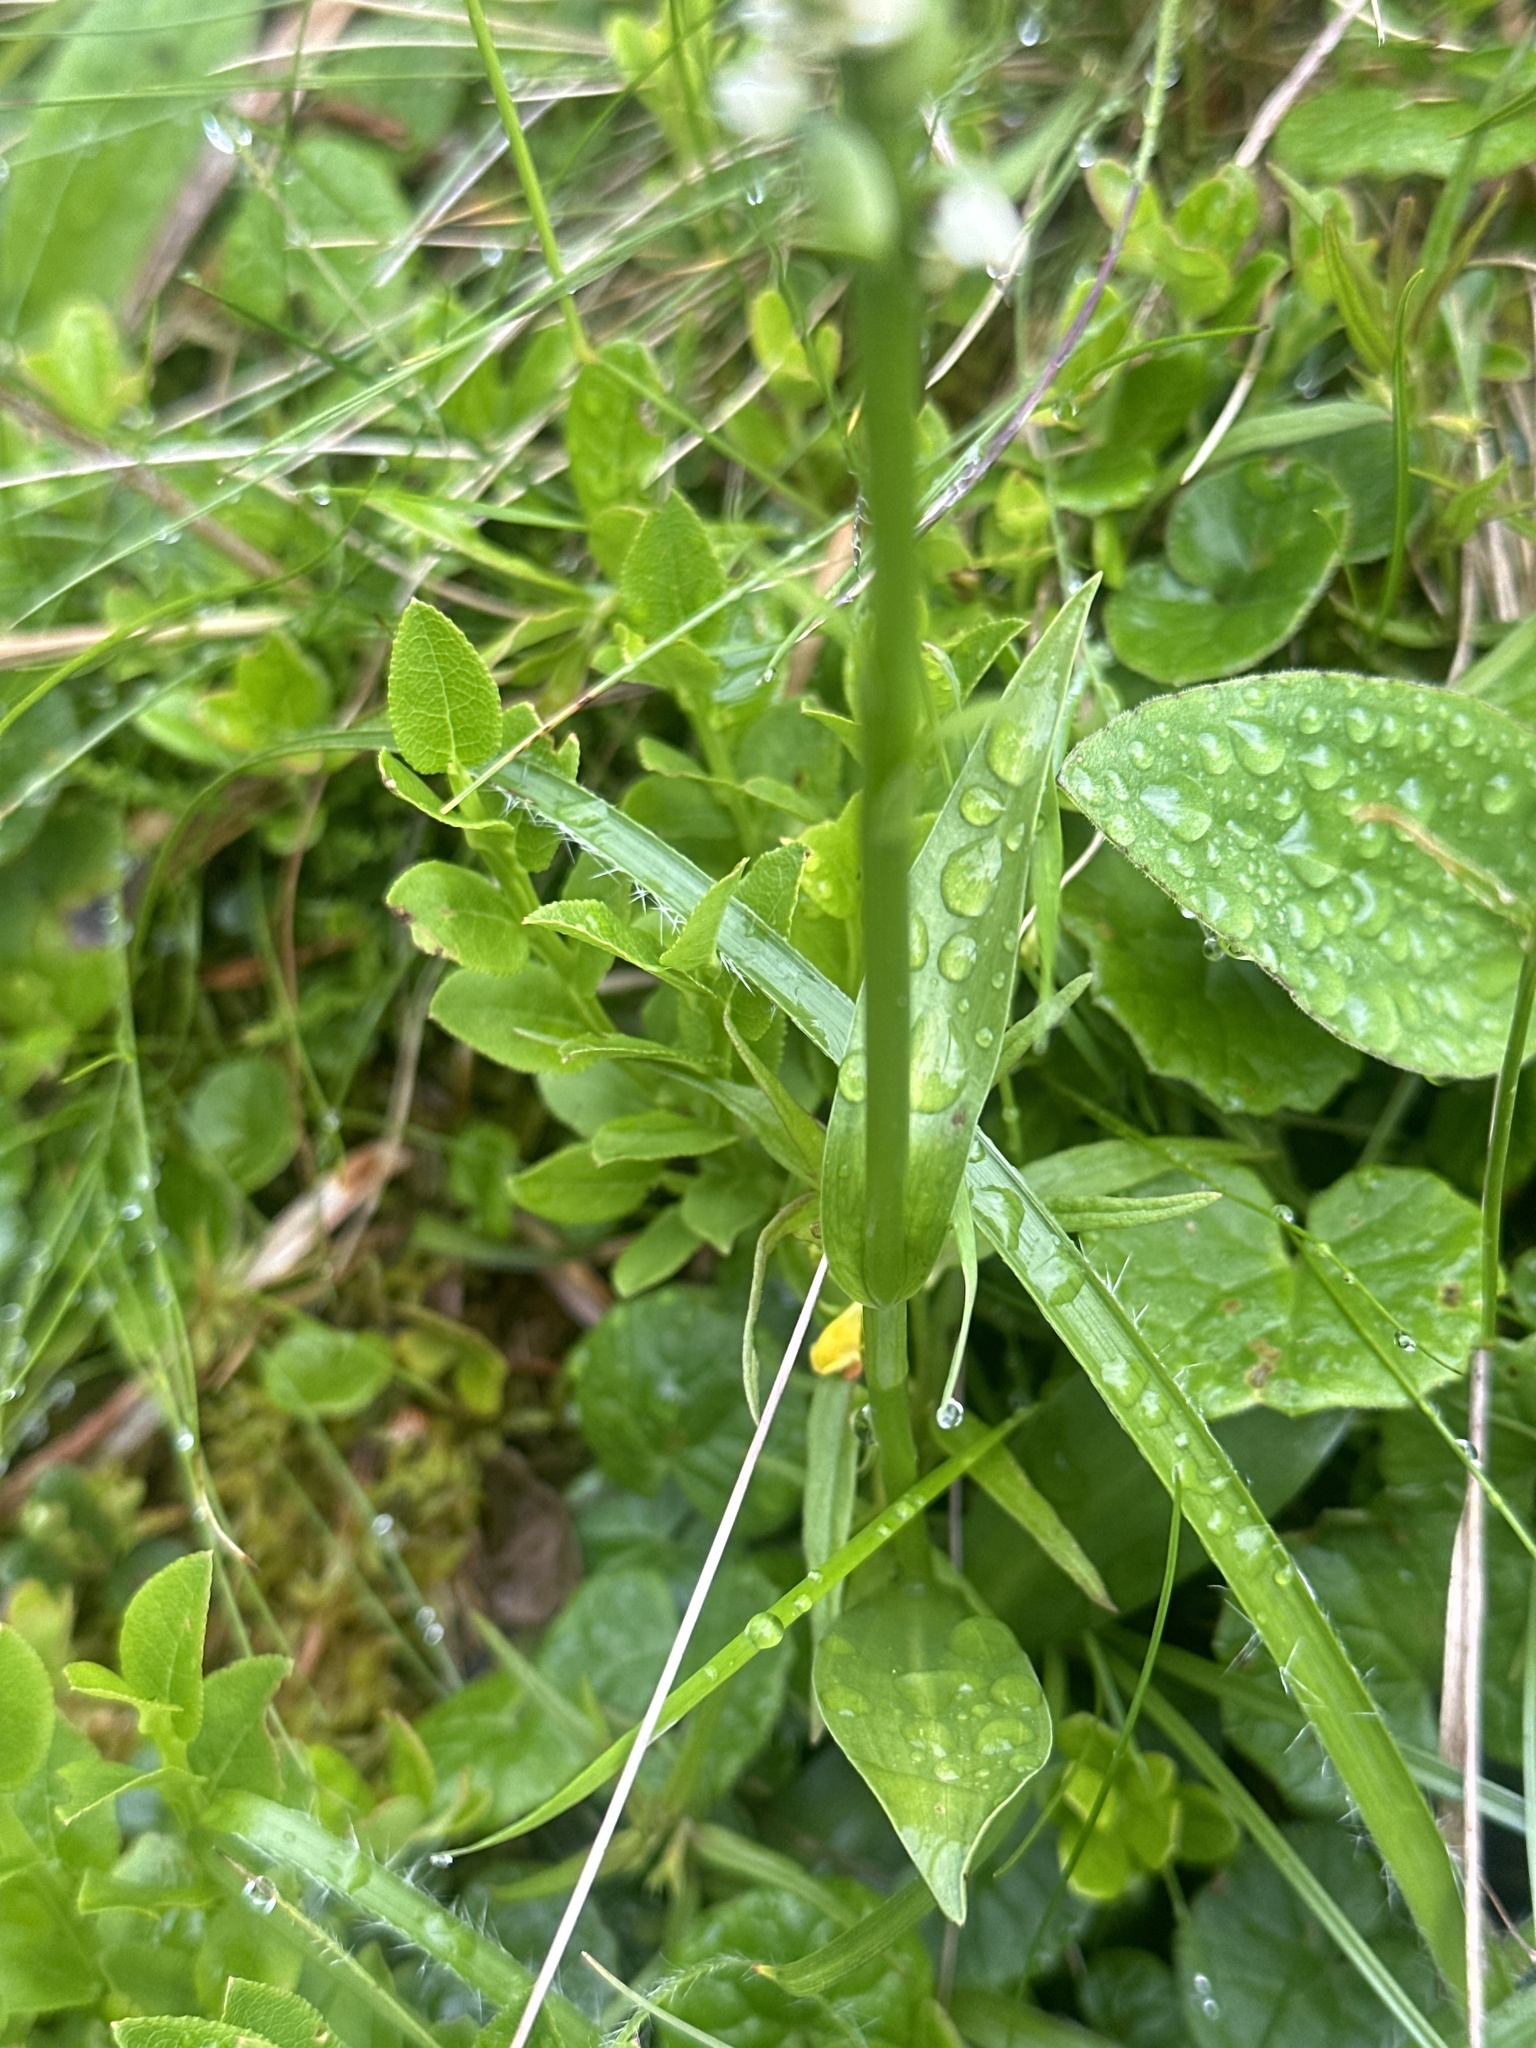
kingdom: Plantae
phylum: Tracheophyta
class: Liliopsida
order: Asparagales
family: Orchidaceae
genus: Pseudorchis
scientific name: Pseudorchis albida
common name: Small-white orchid
